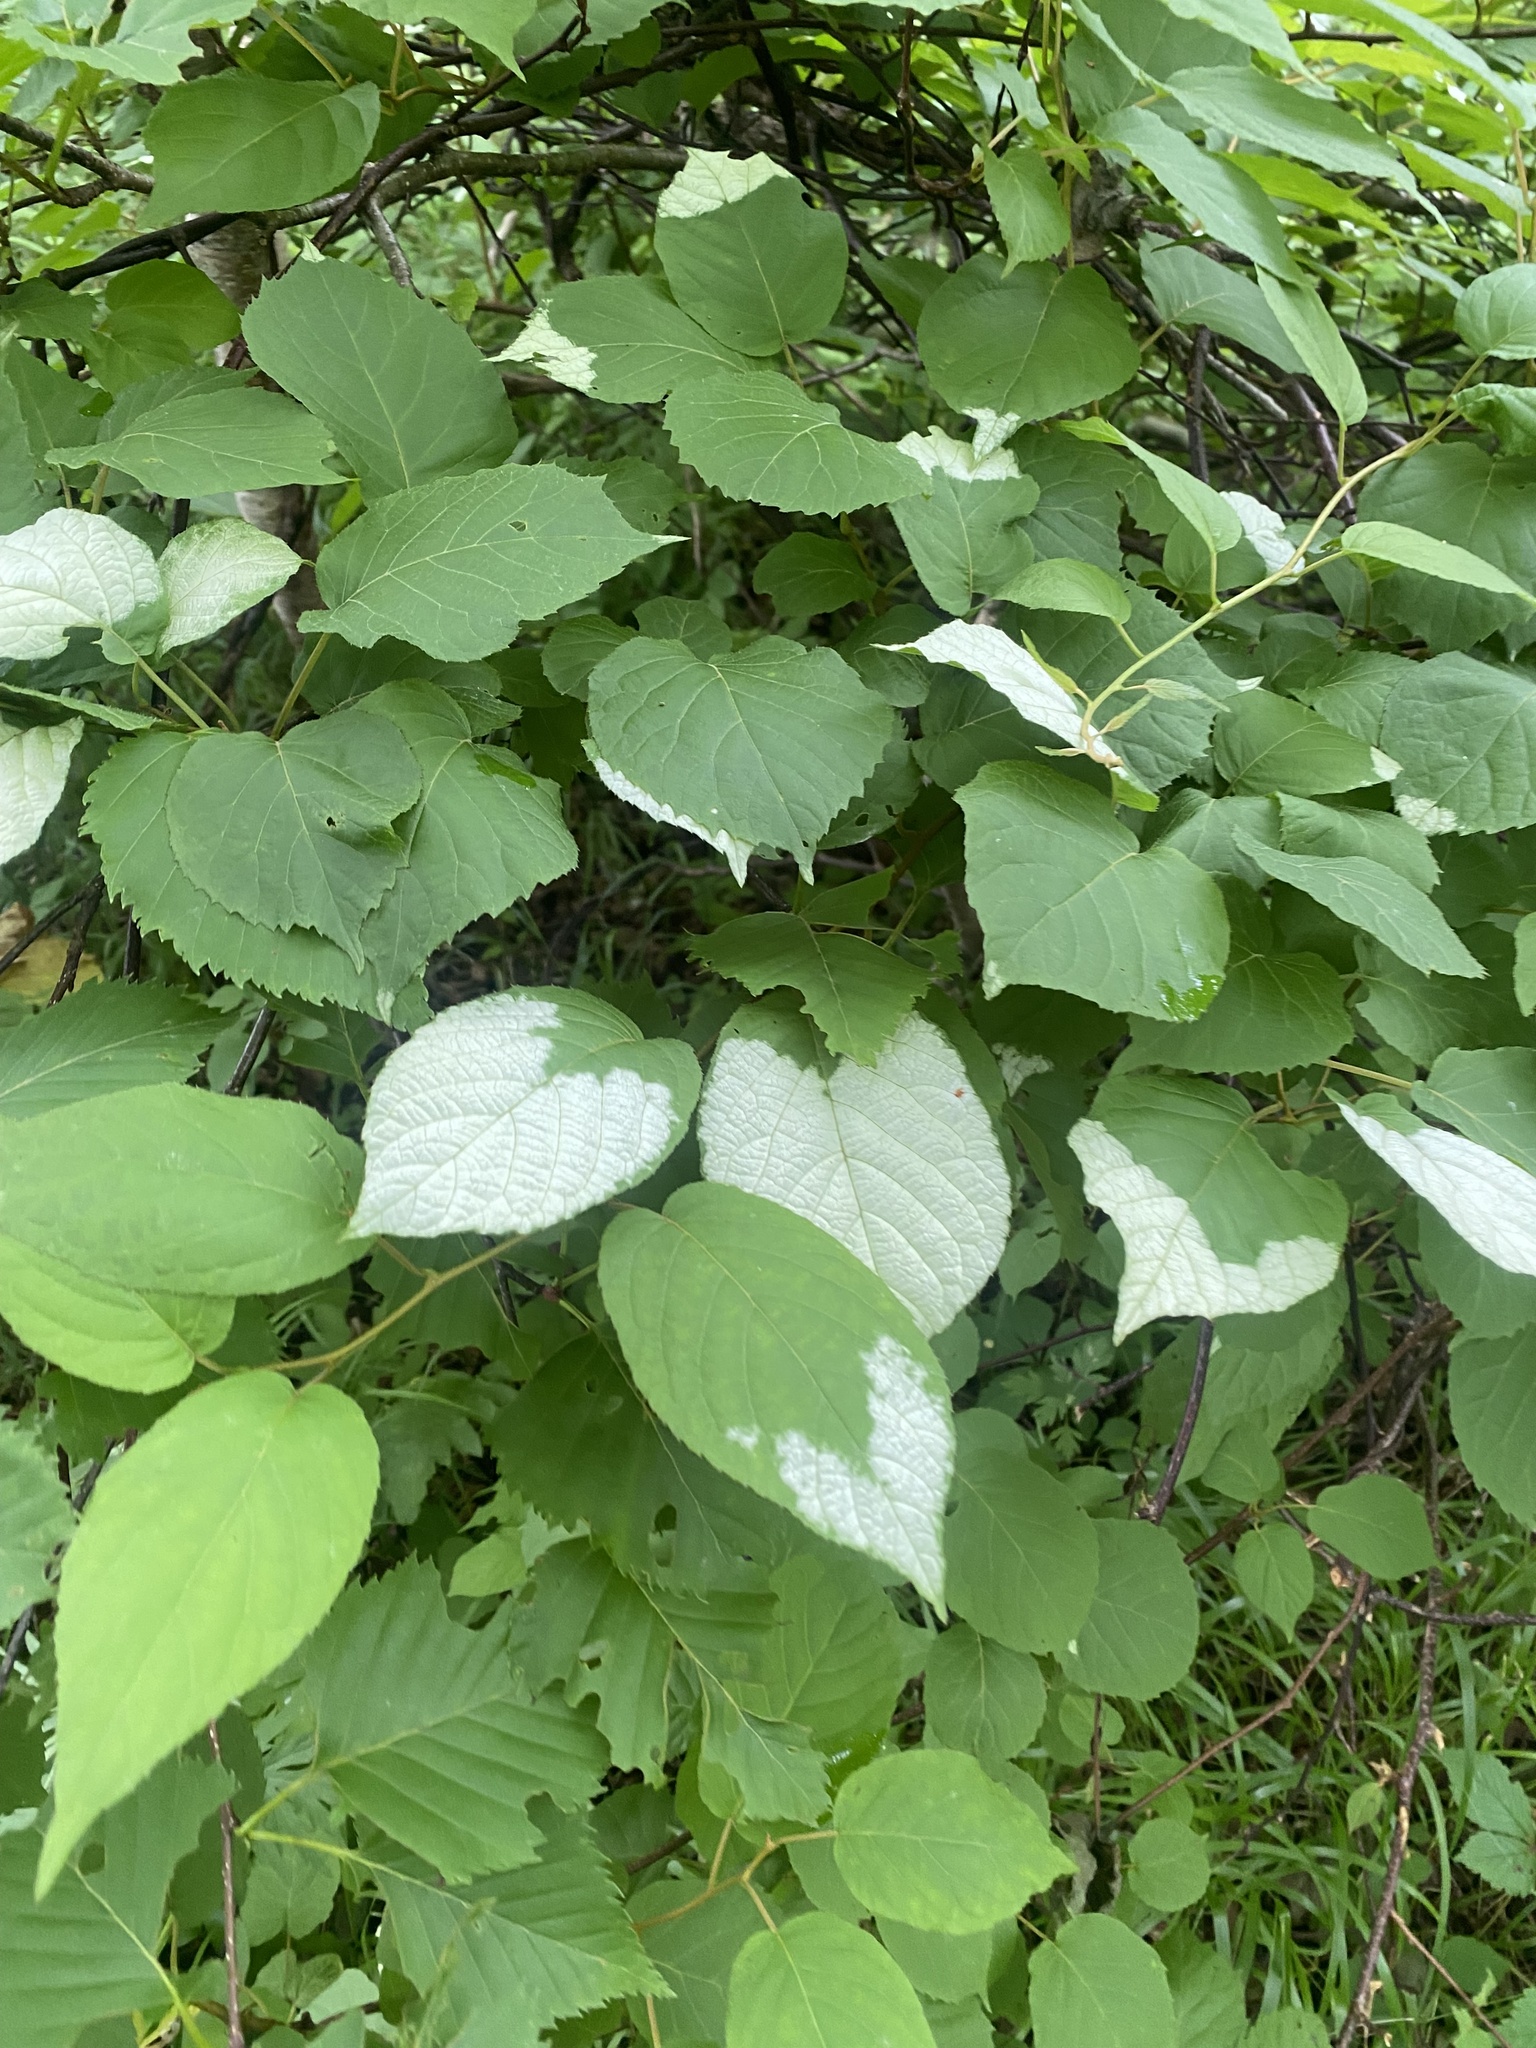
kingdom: Plantae
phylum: Tracheophyta
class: Magnoliopsida
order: Ericales
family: Actinidiaceae
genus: Actinidia
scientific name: Actinidia kolomikta
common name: Arctic beauty kiwi
